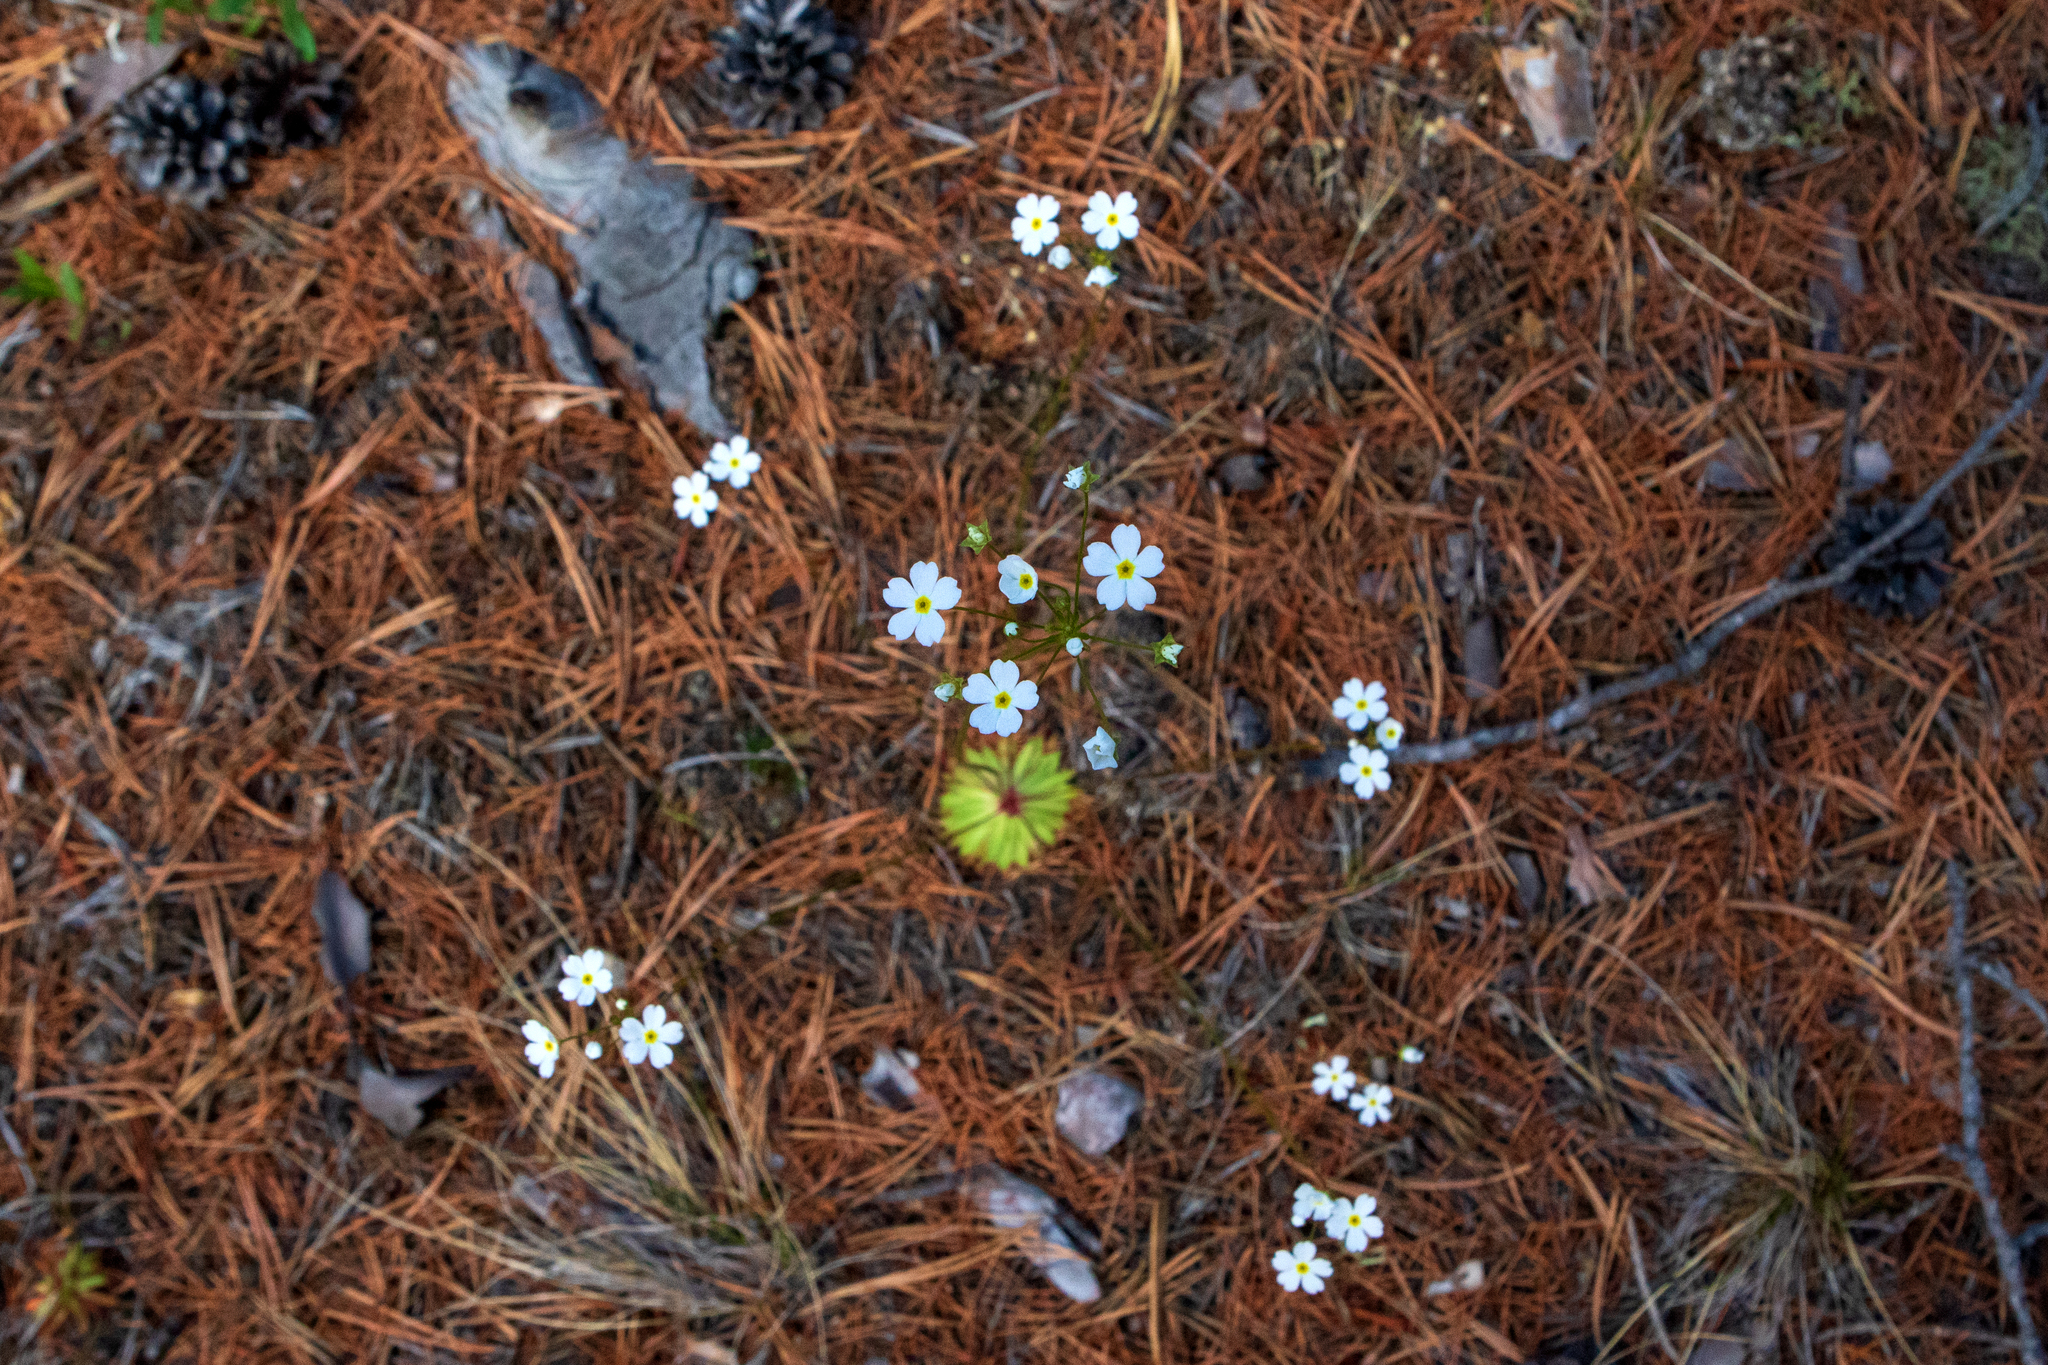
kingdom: Plantae
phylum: Tracheophyta
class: Magnoliopsida
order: Ericales
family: Primulaceae
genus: Androsace
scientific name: Androsace lactiflora
